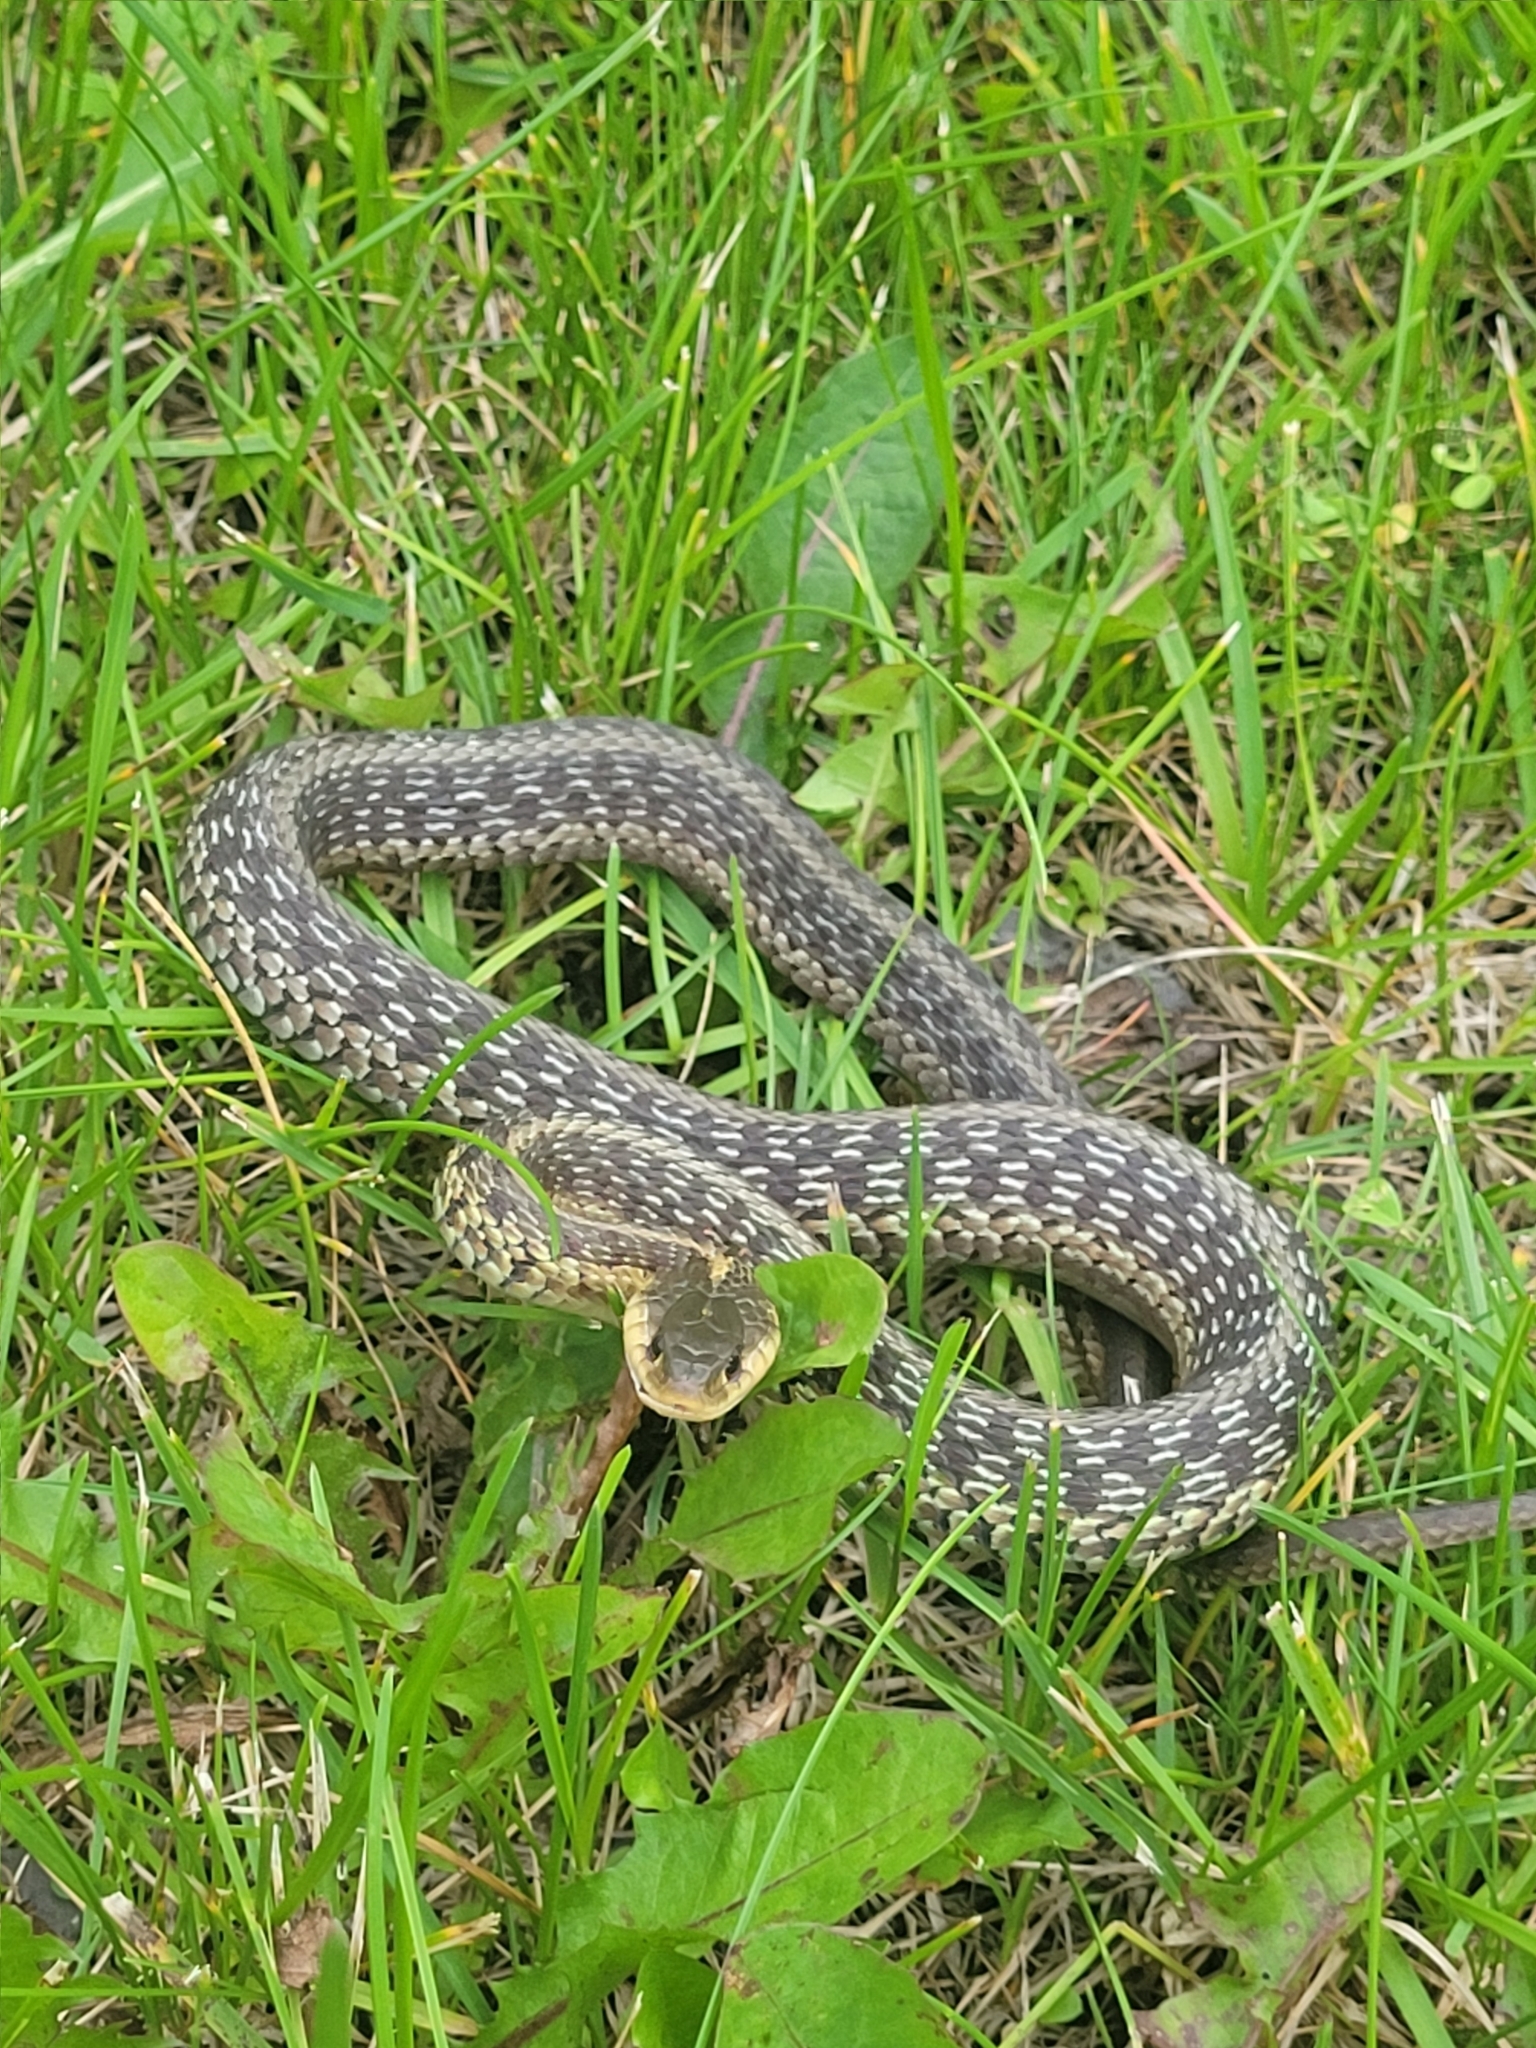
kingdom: Animalia
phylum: Chordata
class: Squamata
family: Colubridae
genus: Thamnophis
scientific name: Thamnophis sirtalis
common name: Common garter snake
